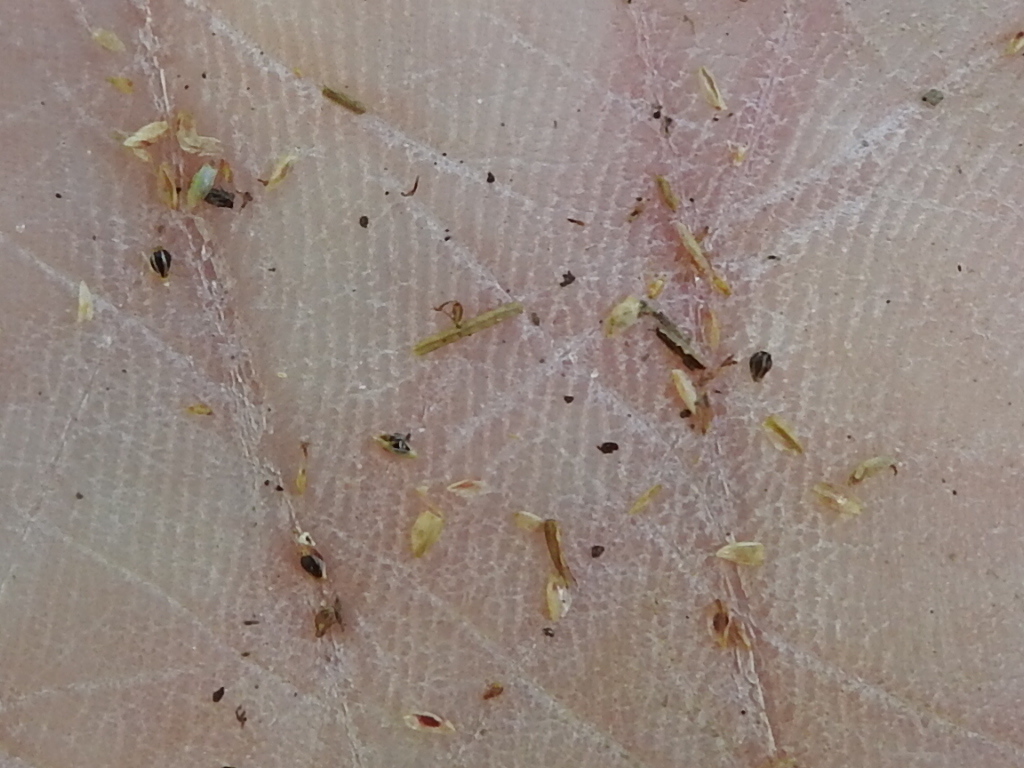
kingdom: Plantae
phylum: Tracheophyta
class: Liliopsida
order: Poales
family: Cyperaceae
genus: Eleocharis
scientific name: Eleocharis geniculata
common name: Canada spikesedge
